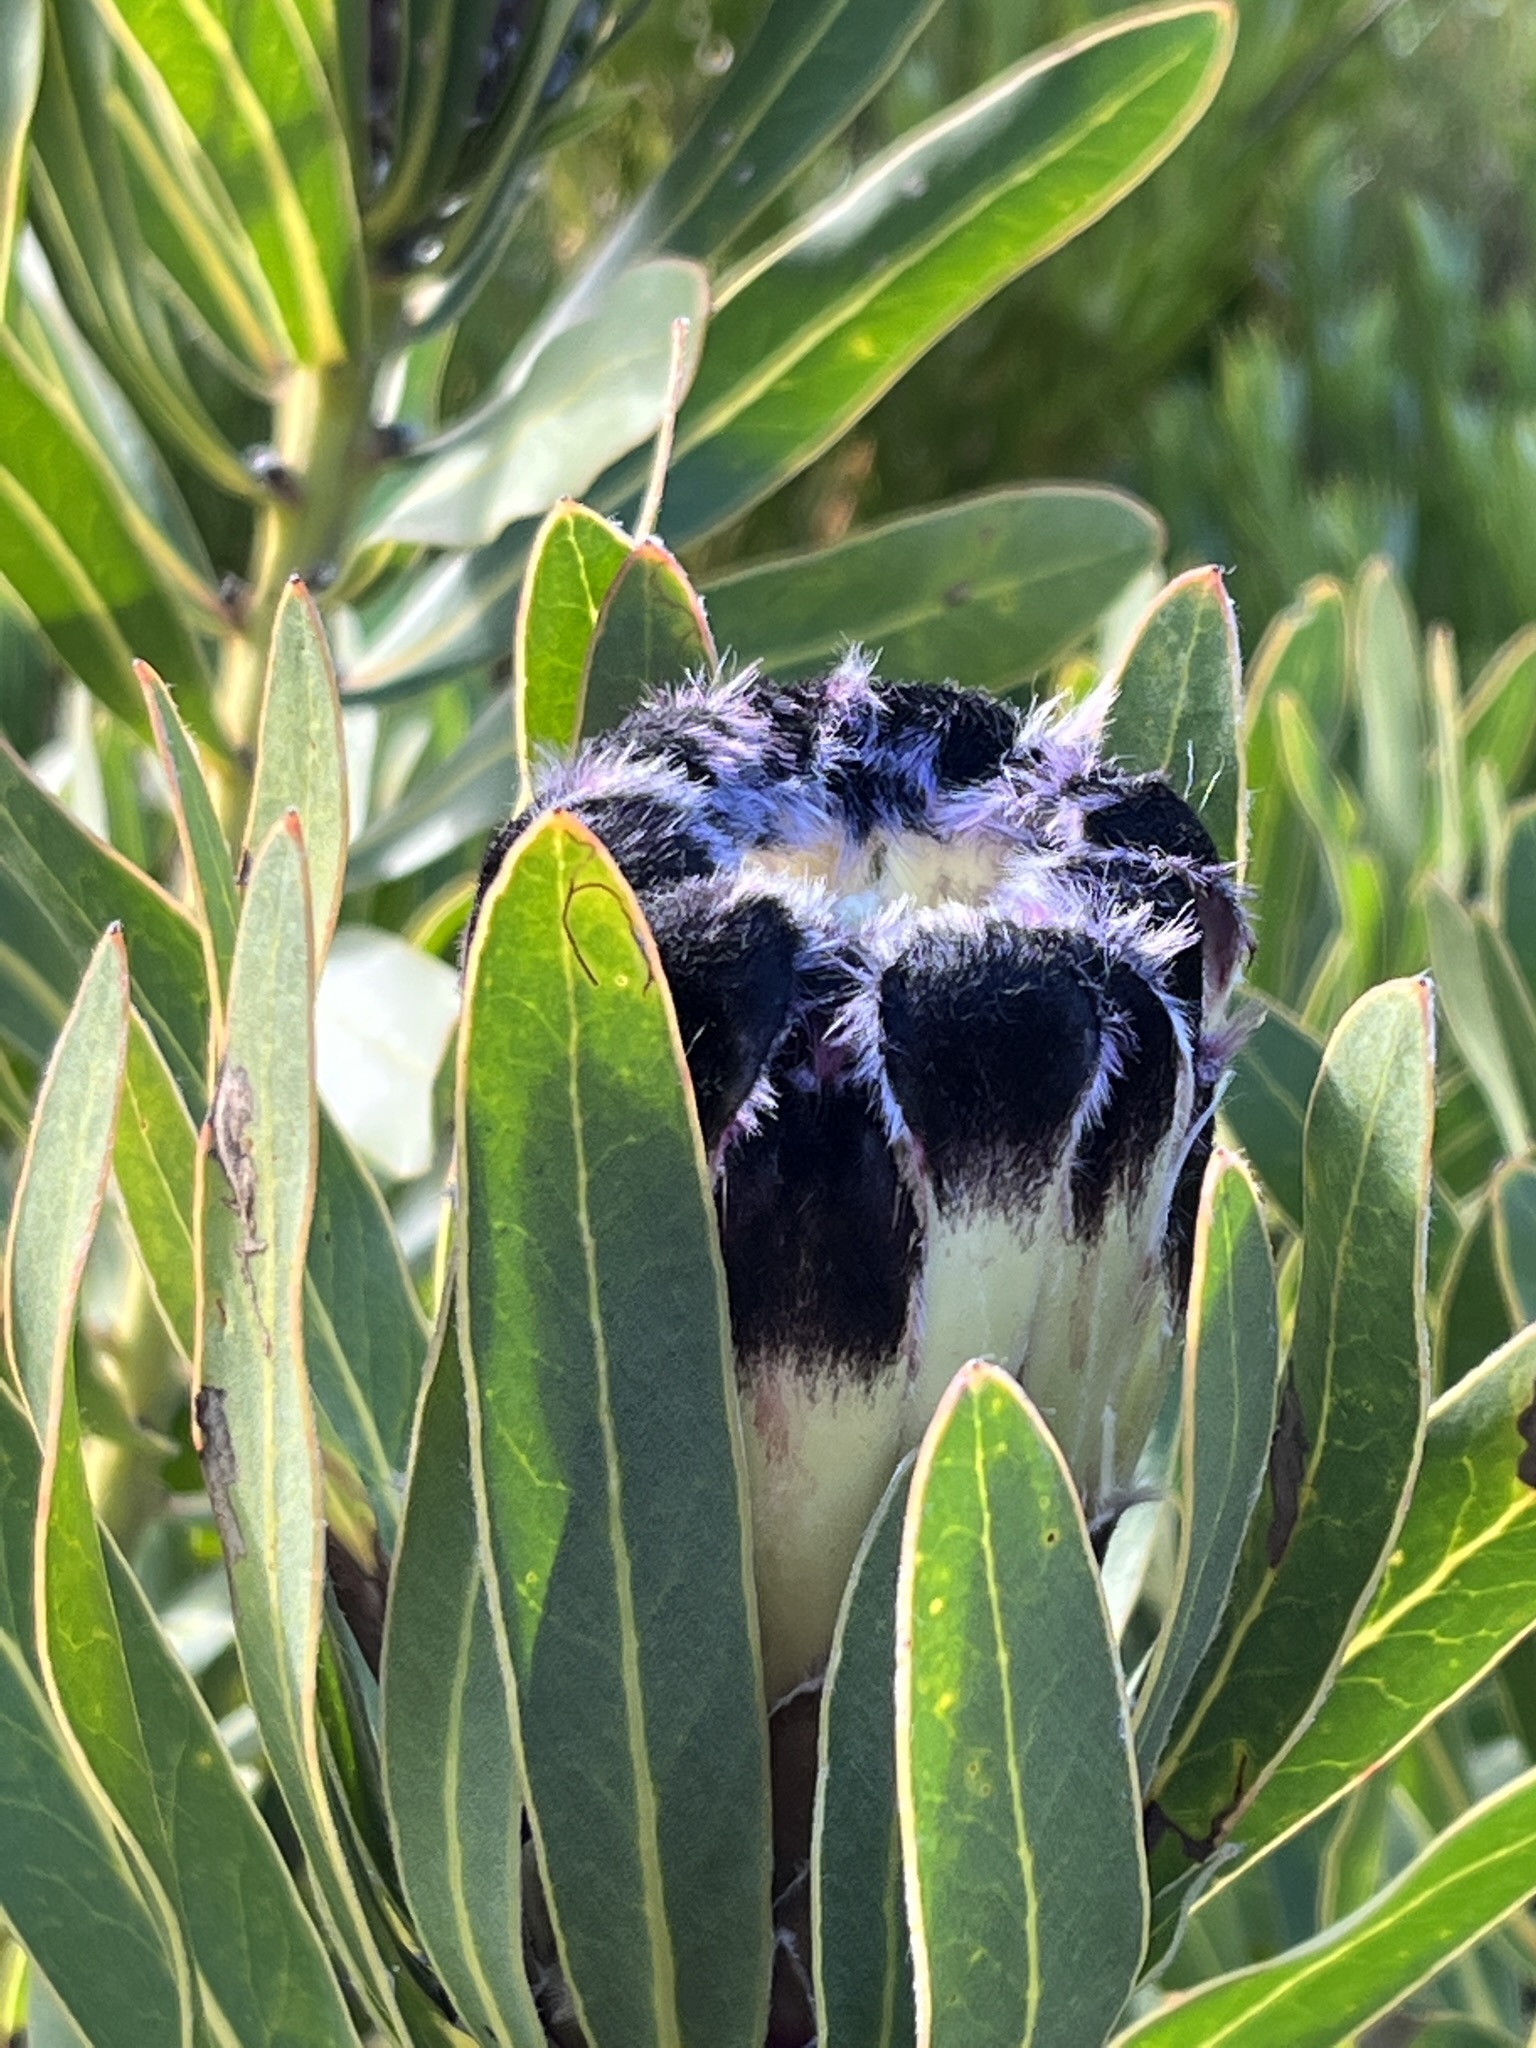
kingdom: Plantae
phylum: Tracheophyta
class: Magnoliopsida
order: Proteales
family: Proteaceae
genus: Protea
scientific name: Protea lepidocarpodendron
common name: Black-bearded protea
